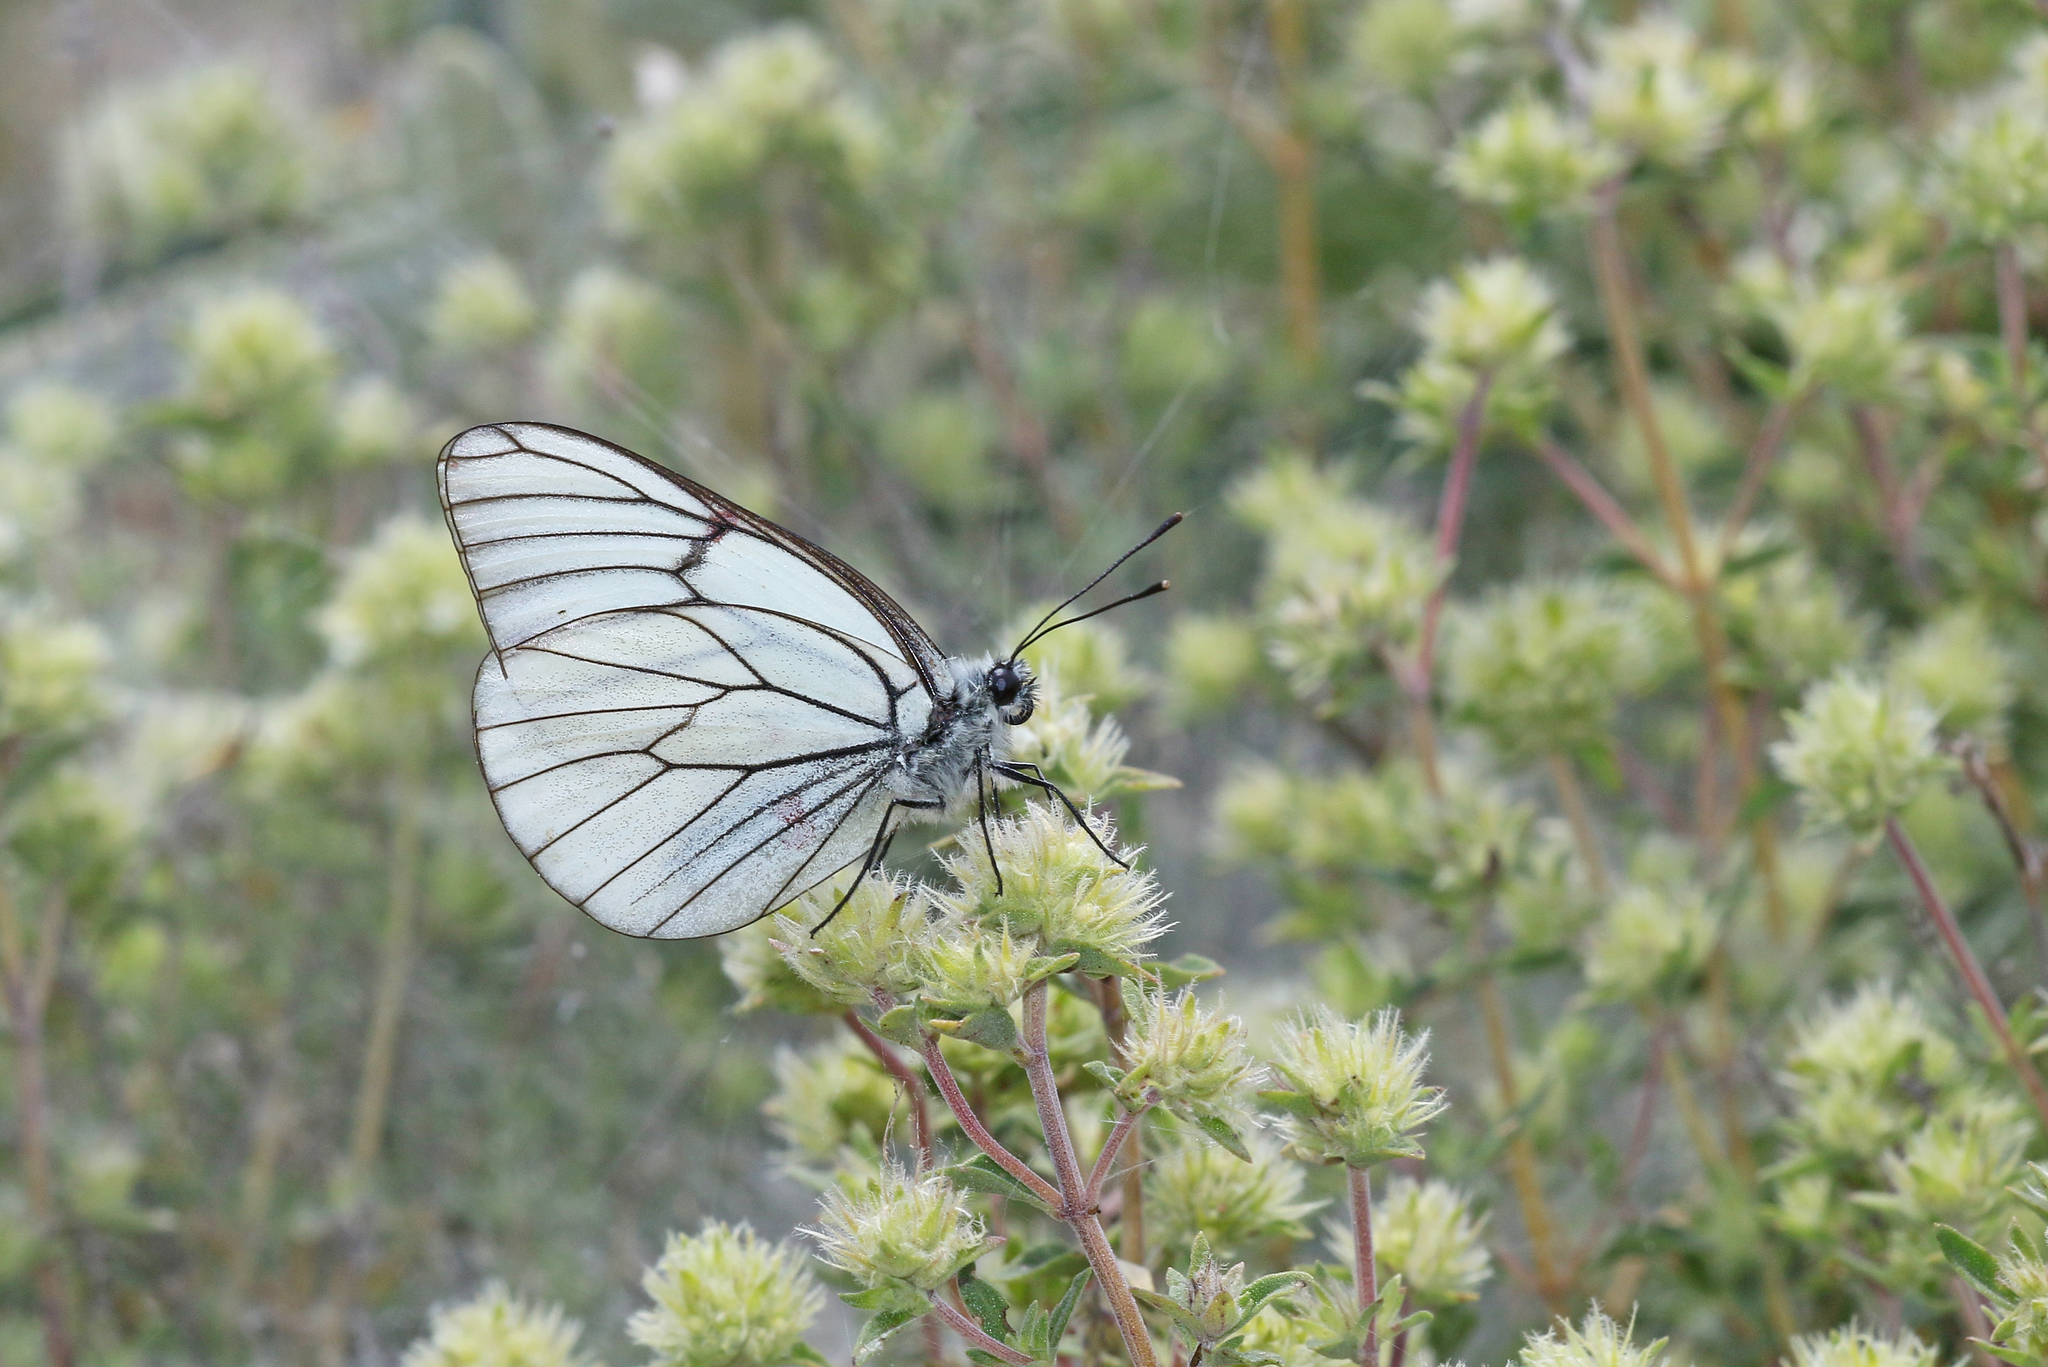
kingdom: Animalia
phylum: Arthropoda
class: Insecta
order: Lepidoptera
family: Pieridae
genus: Aporia
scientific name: Aporia crataegi
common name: Black-veined white
